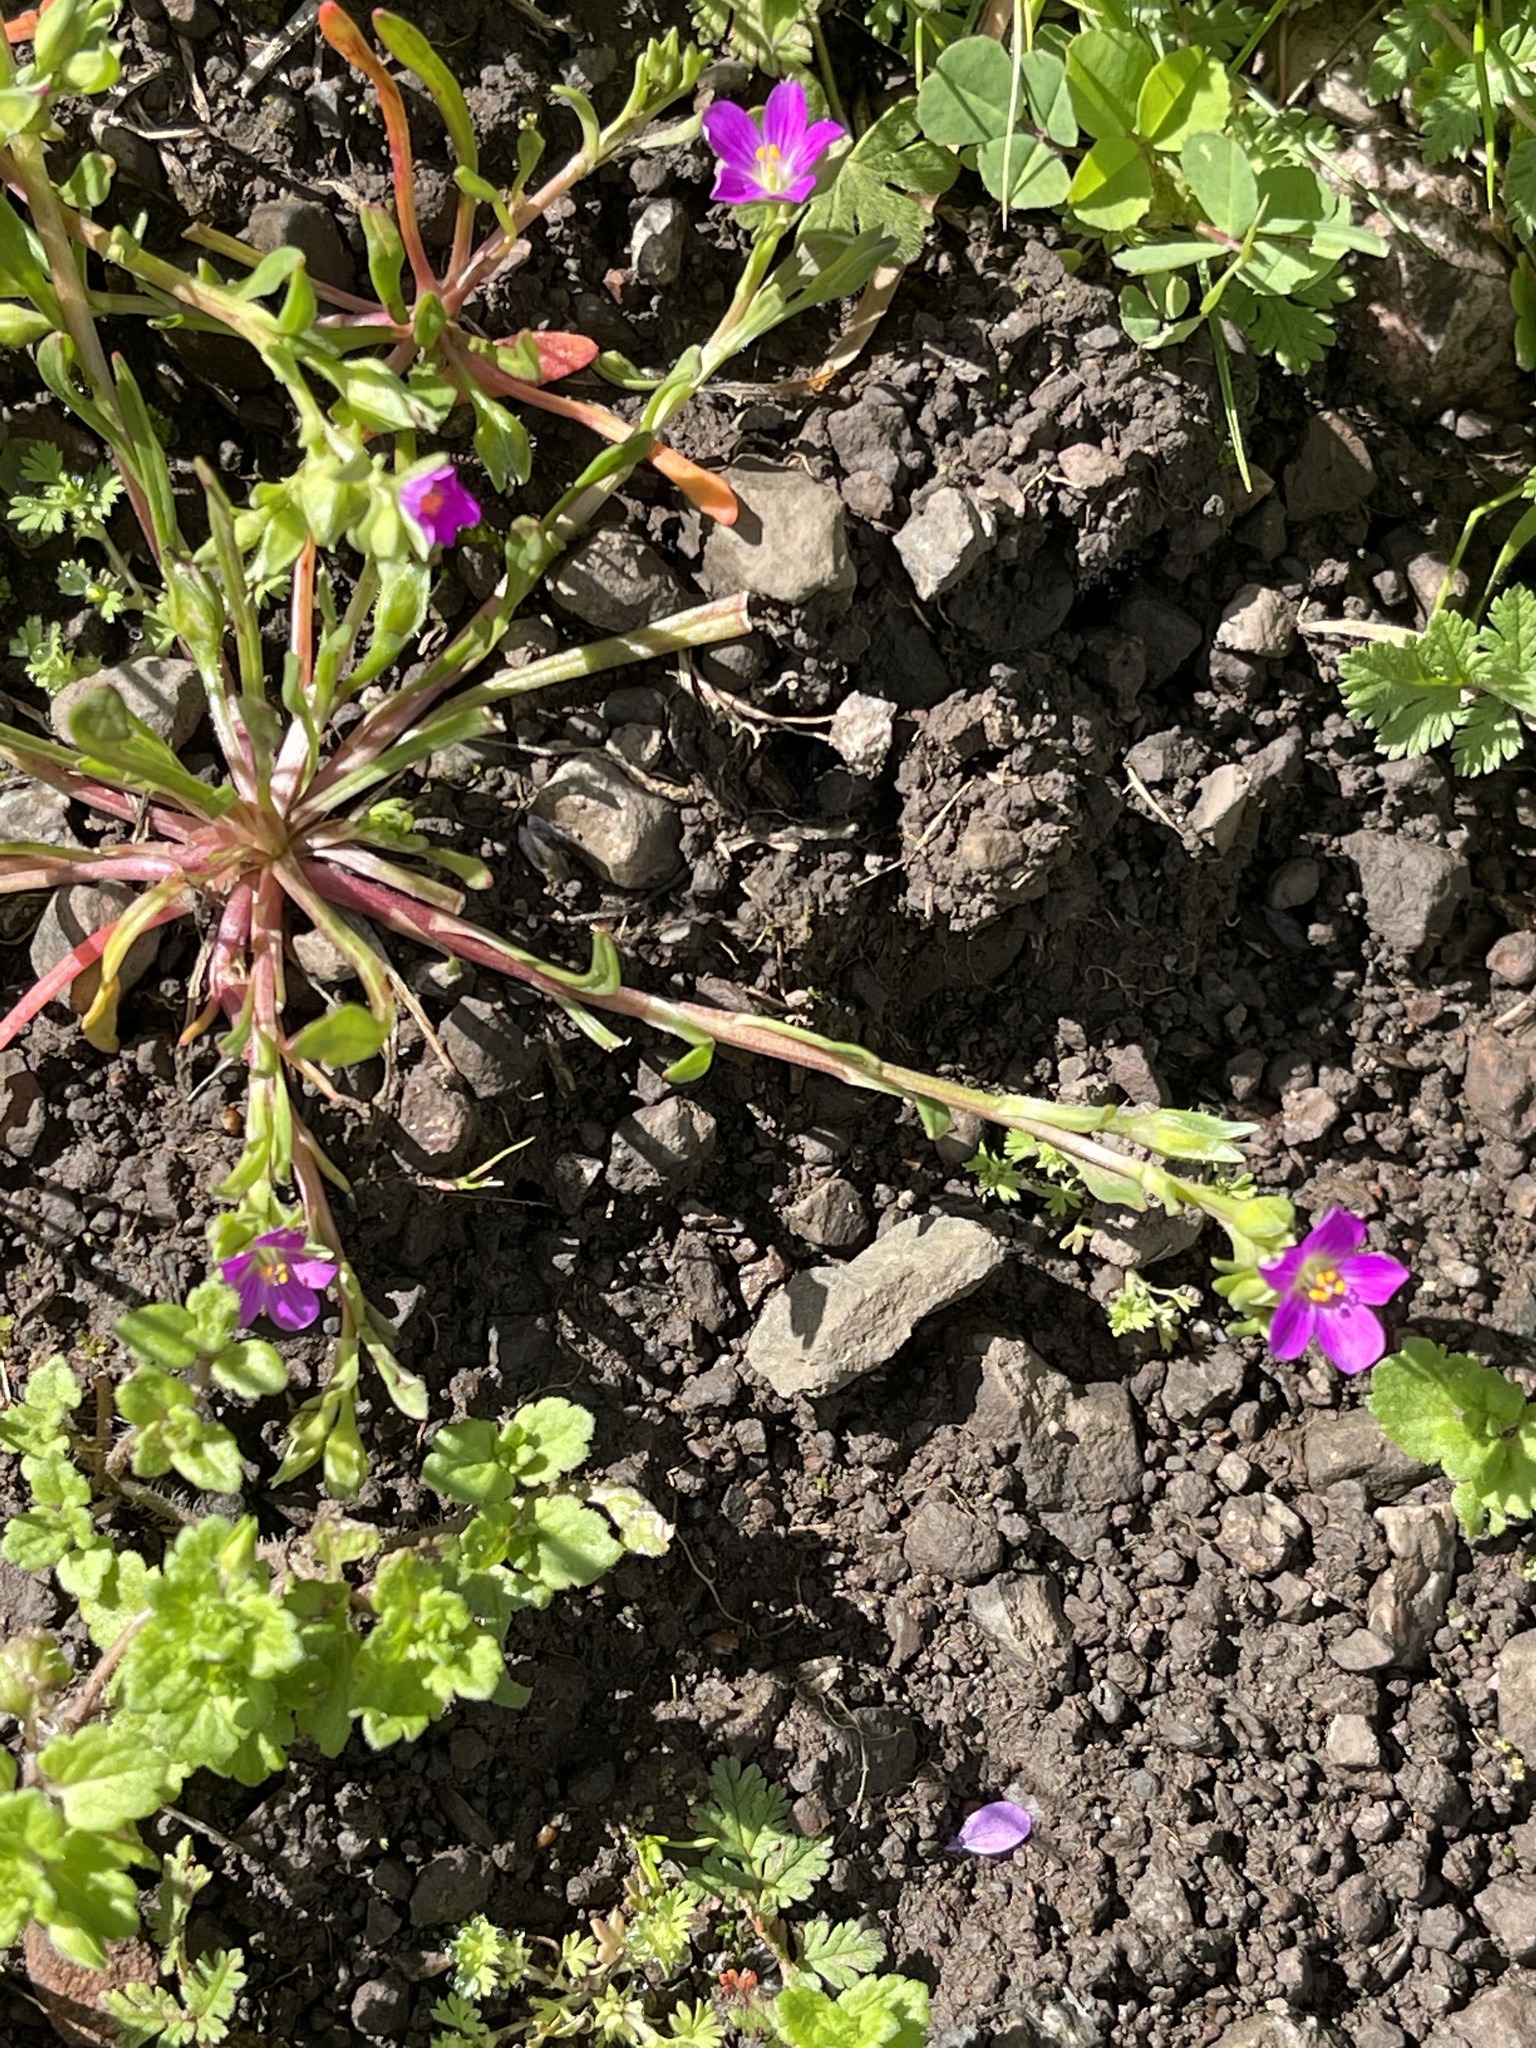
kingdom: Plantae
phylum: Tracheophyta
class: Magnoliopsida
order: Caryophyllales
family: Montiaceae
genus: Calandrinia
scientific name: Calandrinia menziesii
